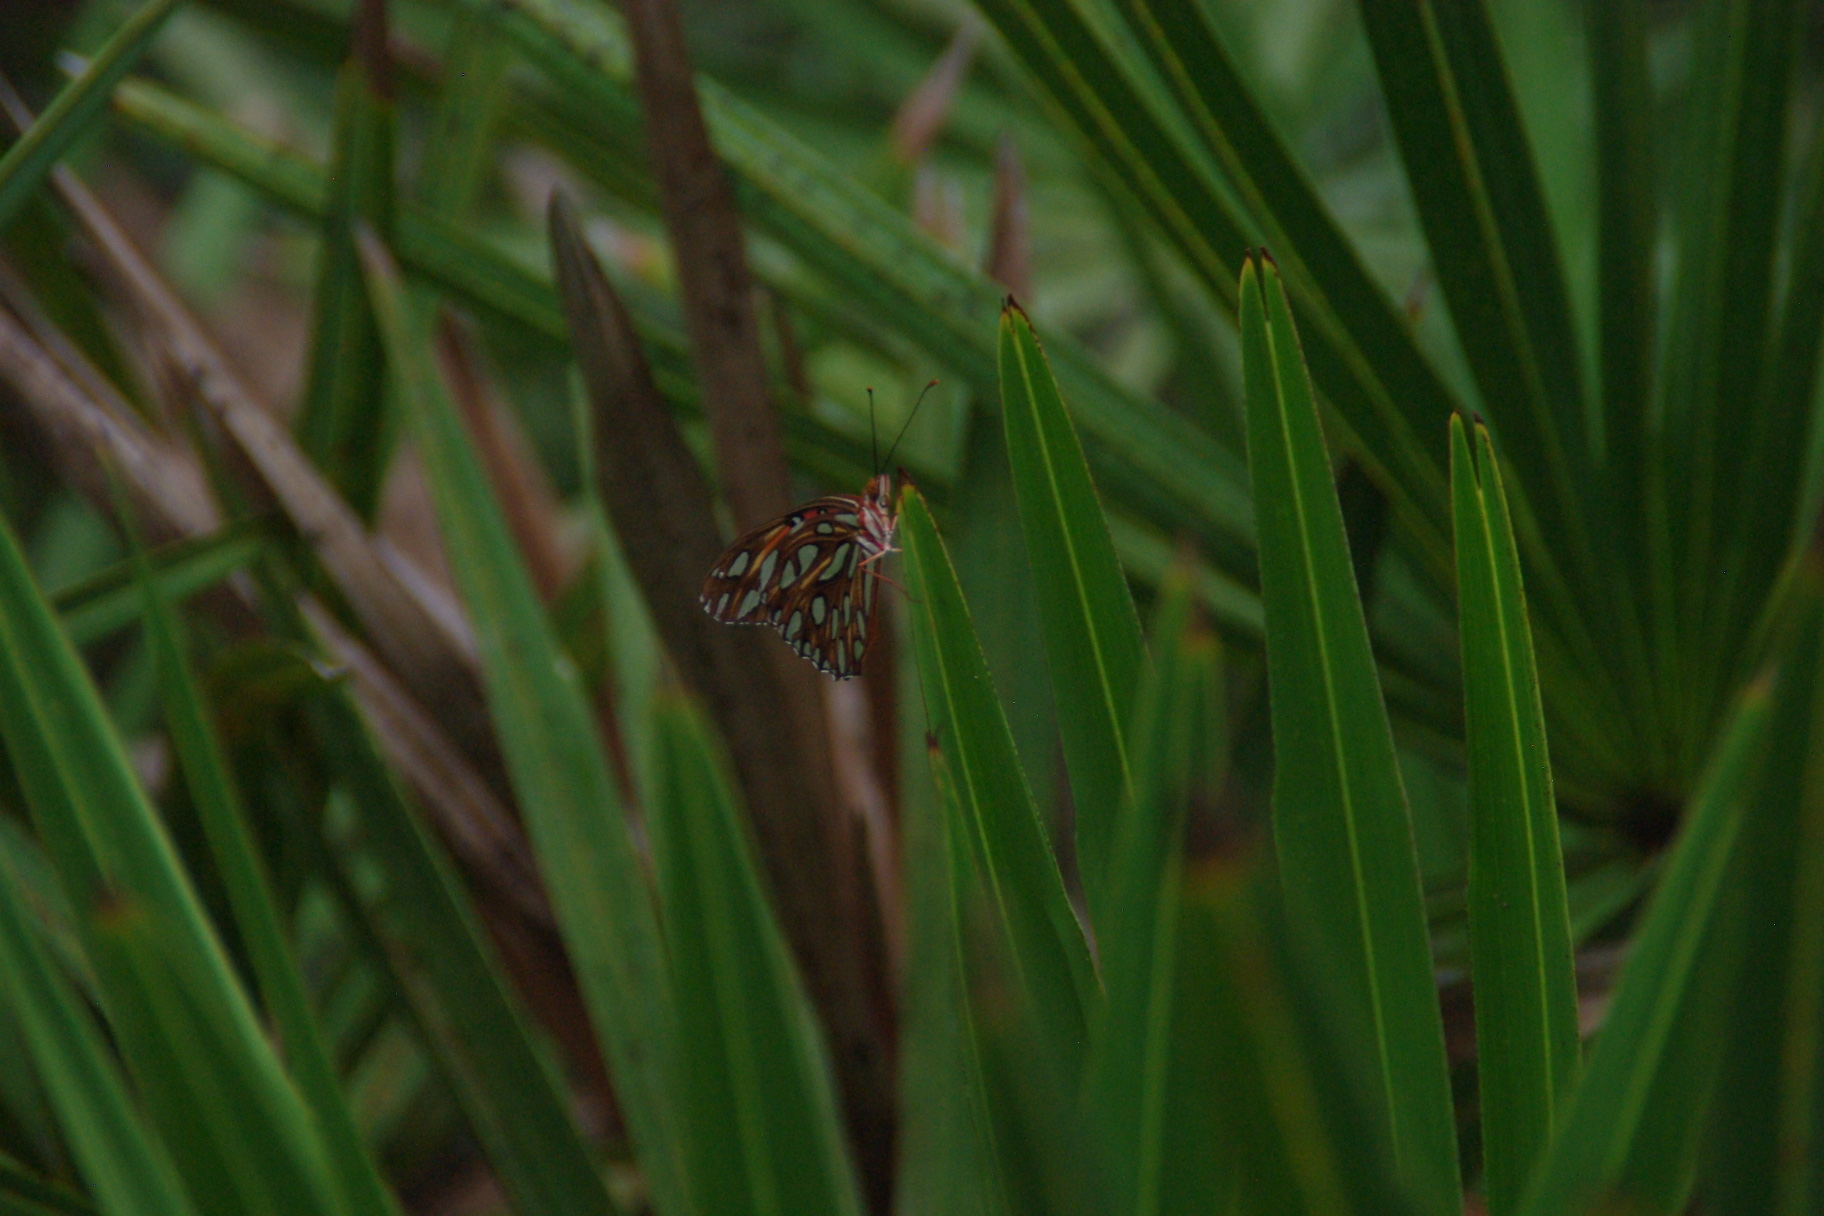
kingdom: Animalia
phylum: Arthropoda
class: Insecta
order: Lepidoptera
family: Nymphalidae
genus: Dione
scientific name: Dione vanillae
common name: Gulf fritillary
